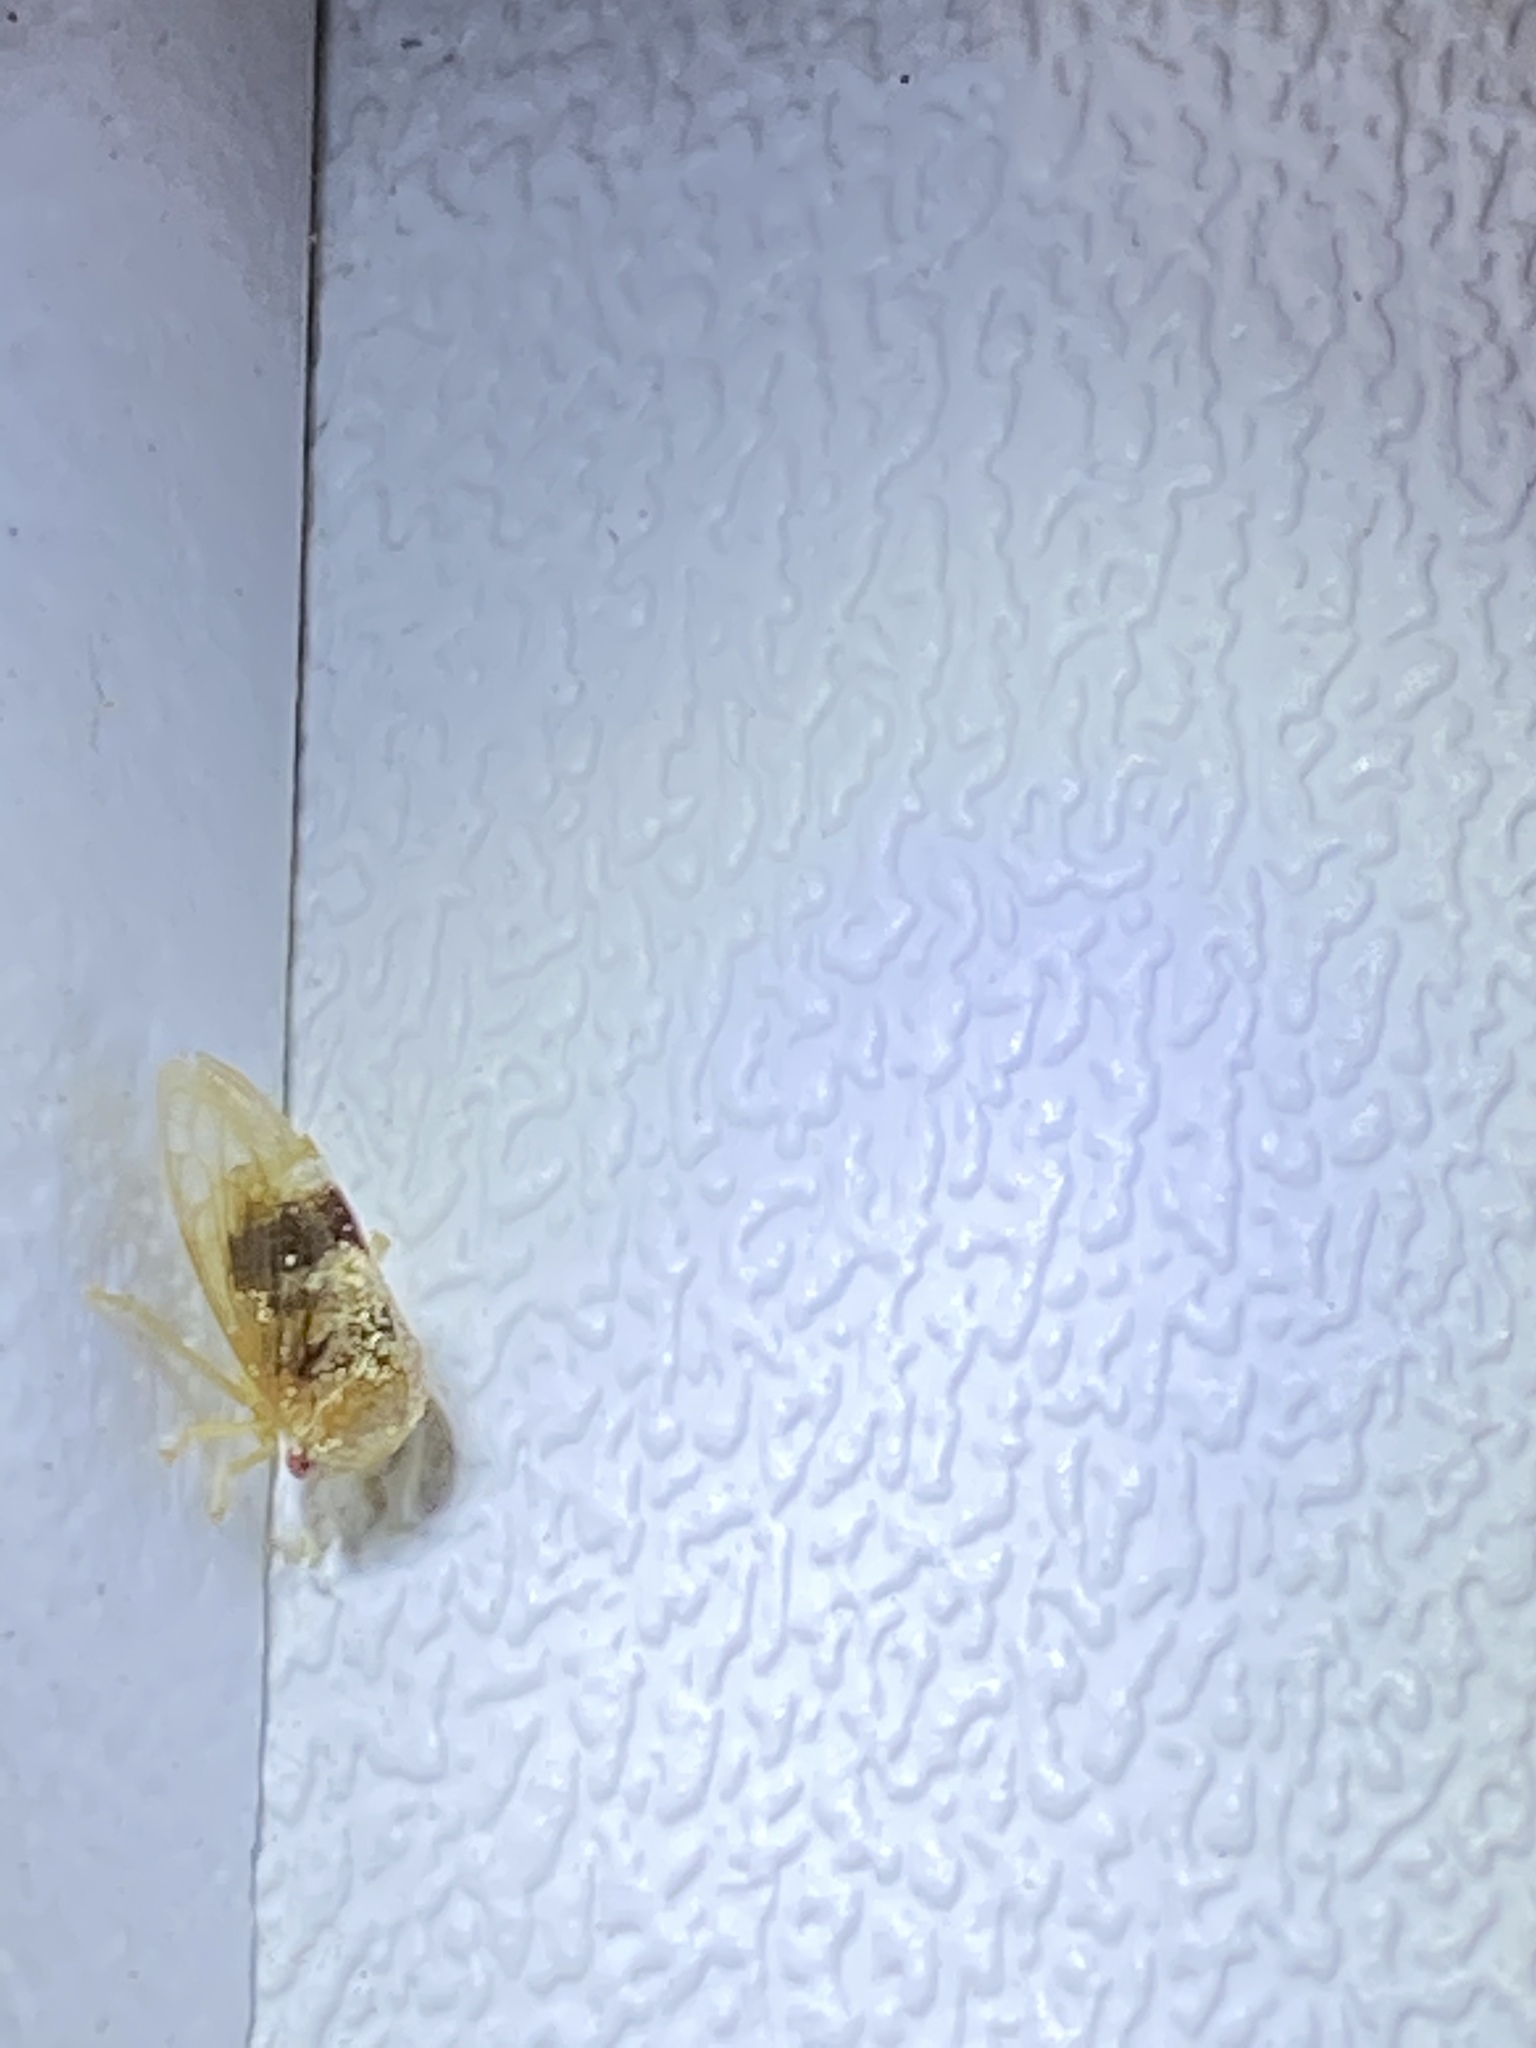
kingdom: Animalia
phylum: Arthropoda
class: Insecta
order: Hemiptera
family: Membracidae
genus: Cyrtolobus
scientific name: Cyrtolobus maculifrontis
